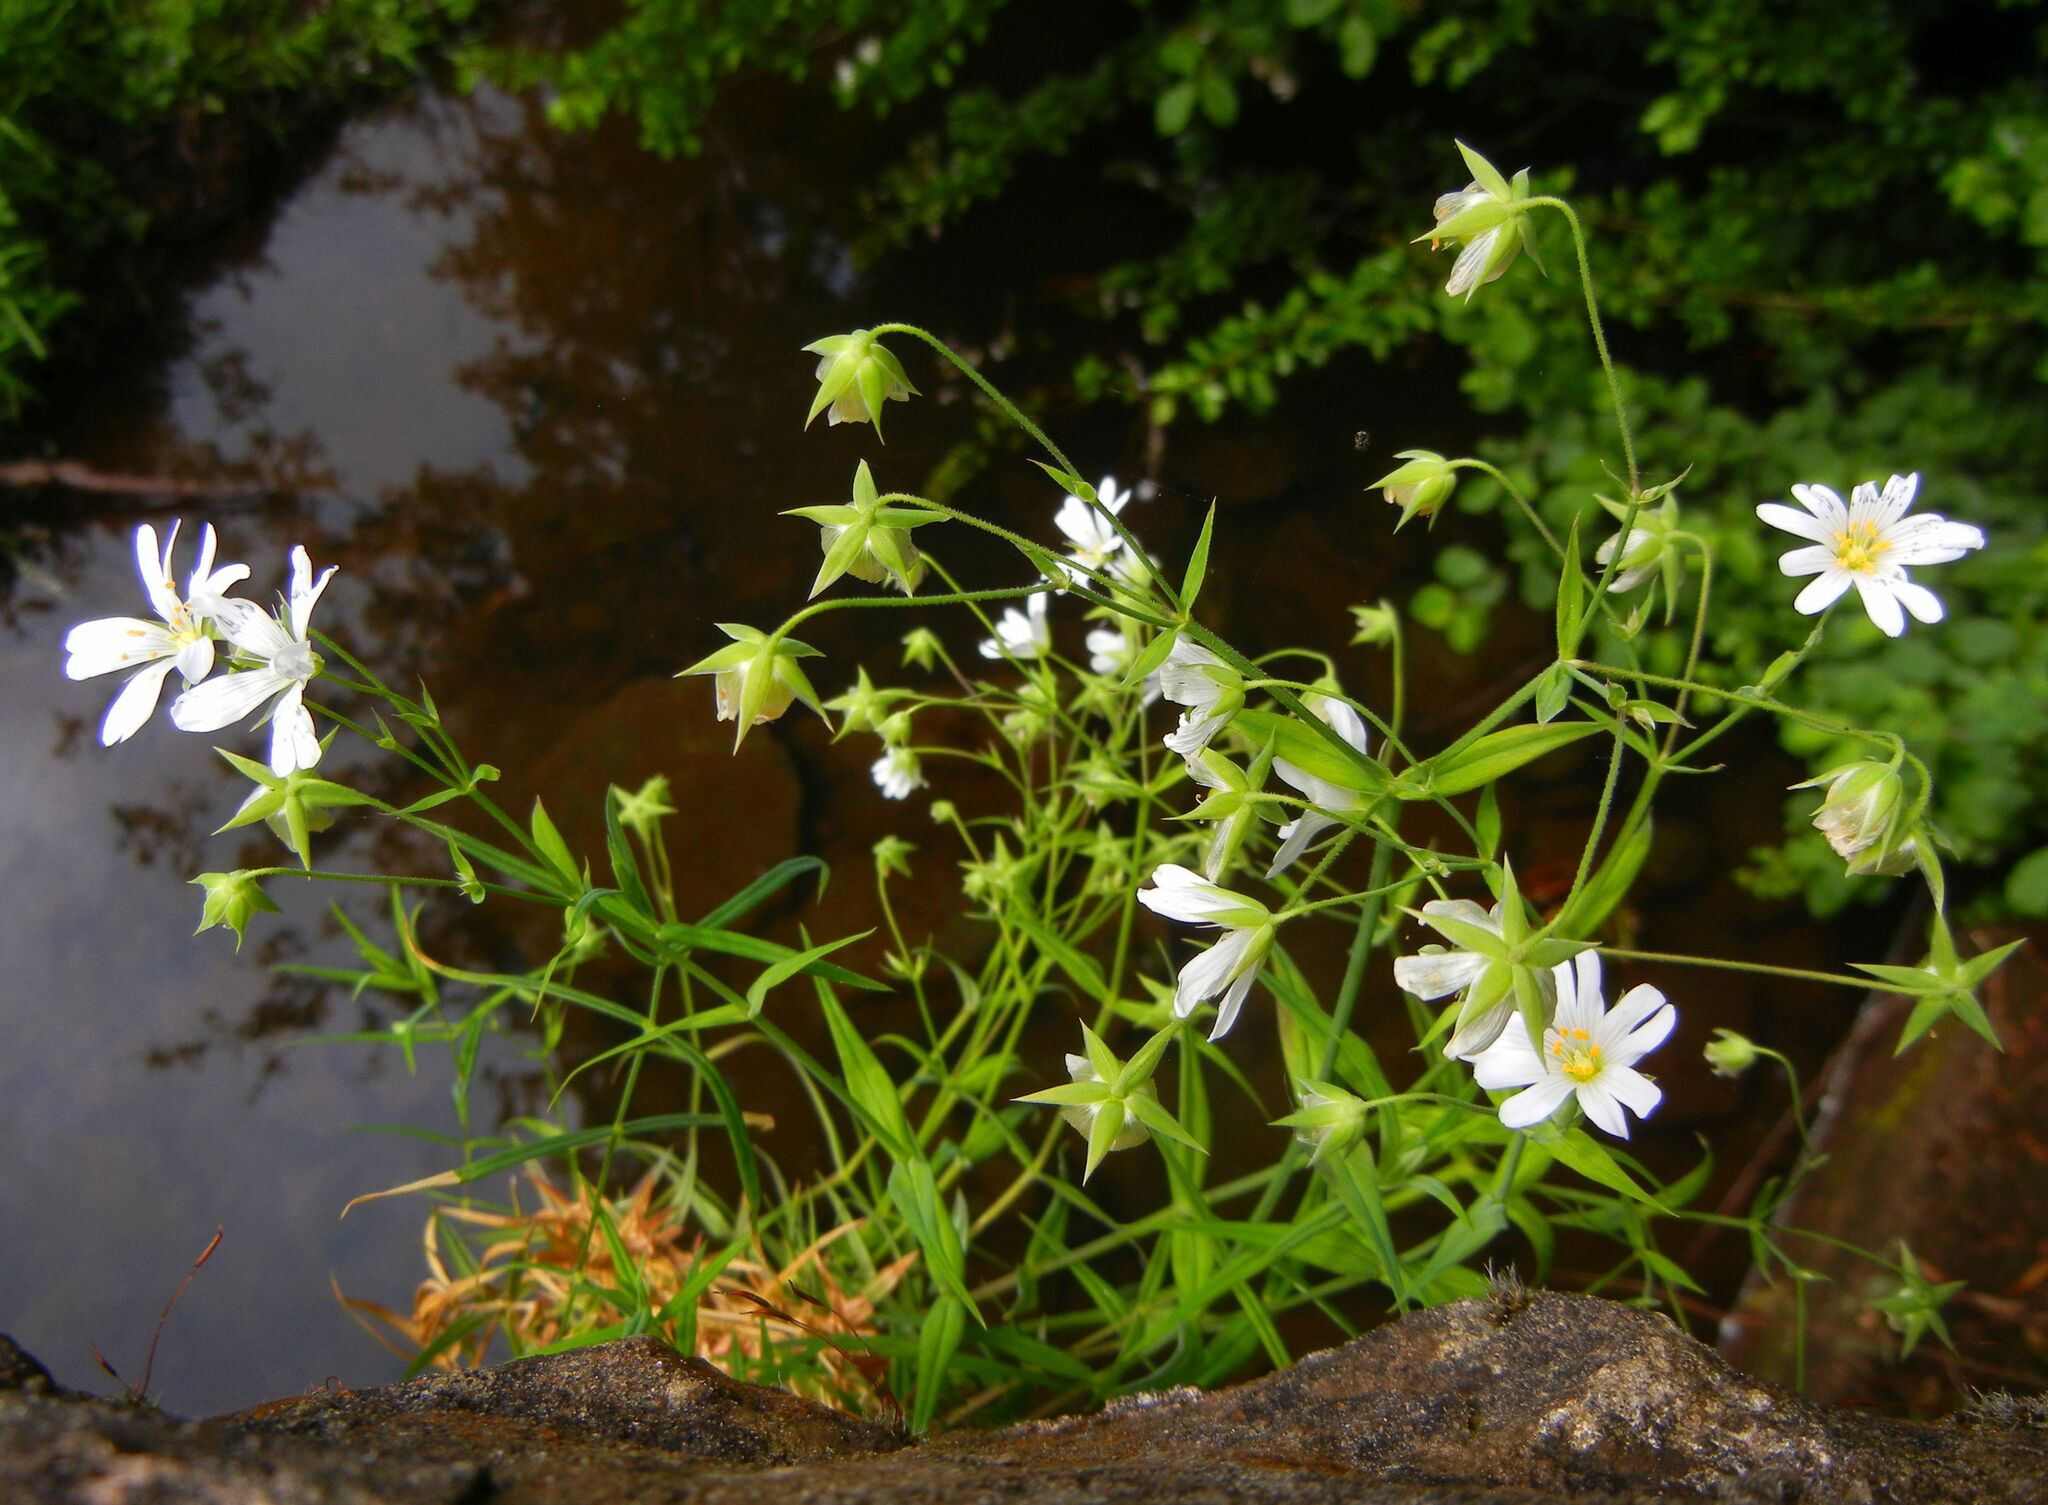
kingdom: Plantae
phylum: Tracheophyta
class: Magnoliopsida
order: Caryophyllales
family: Caryophyllaceae
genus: Rabelera
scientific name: Rabelera holostea
